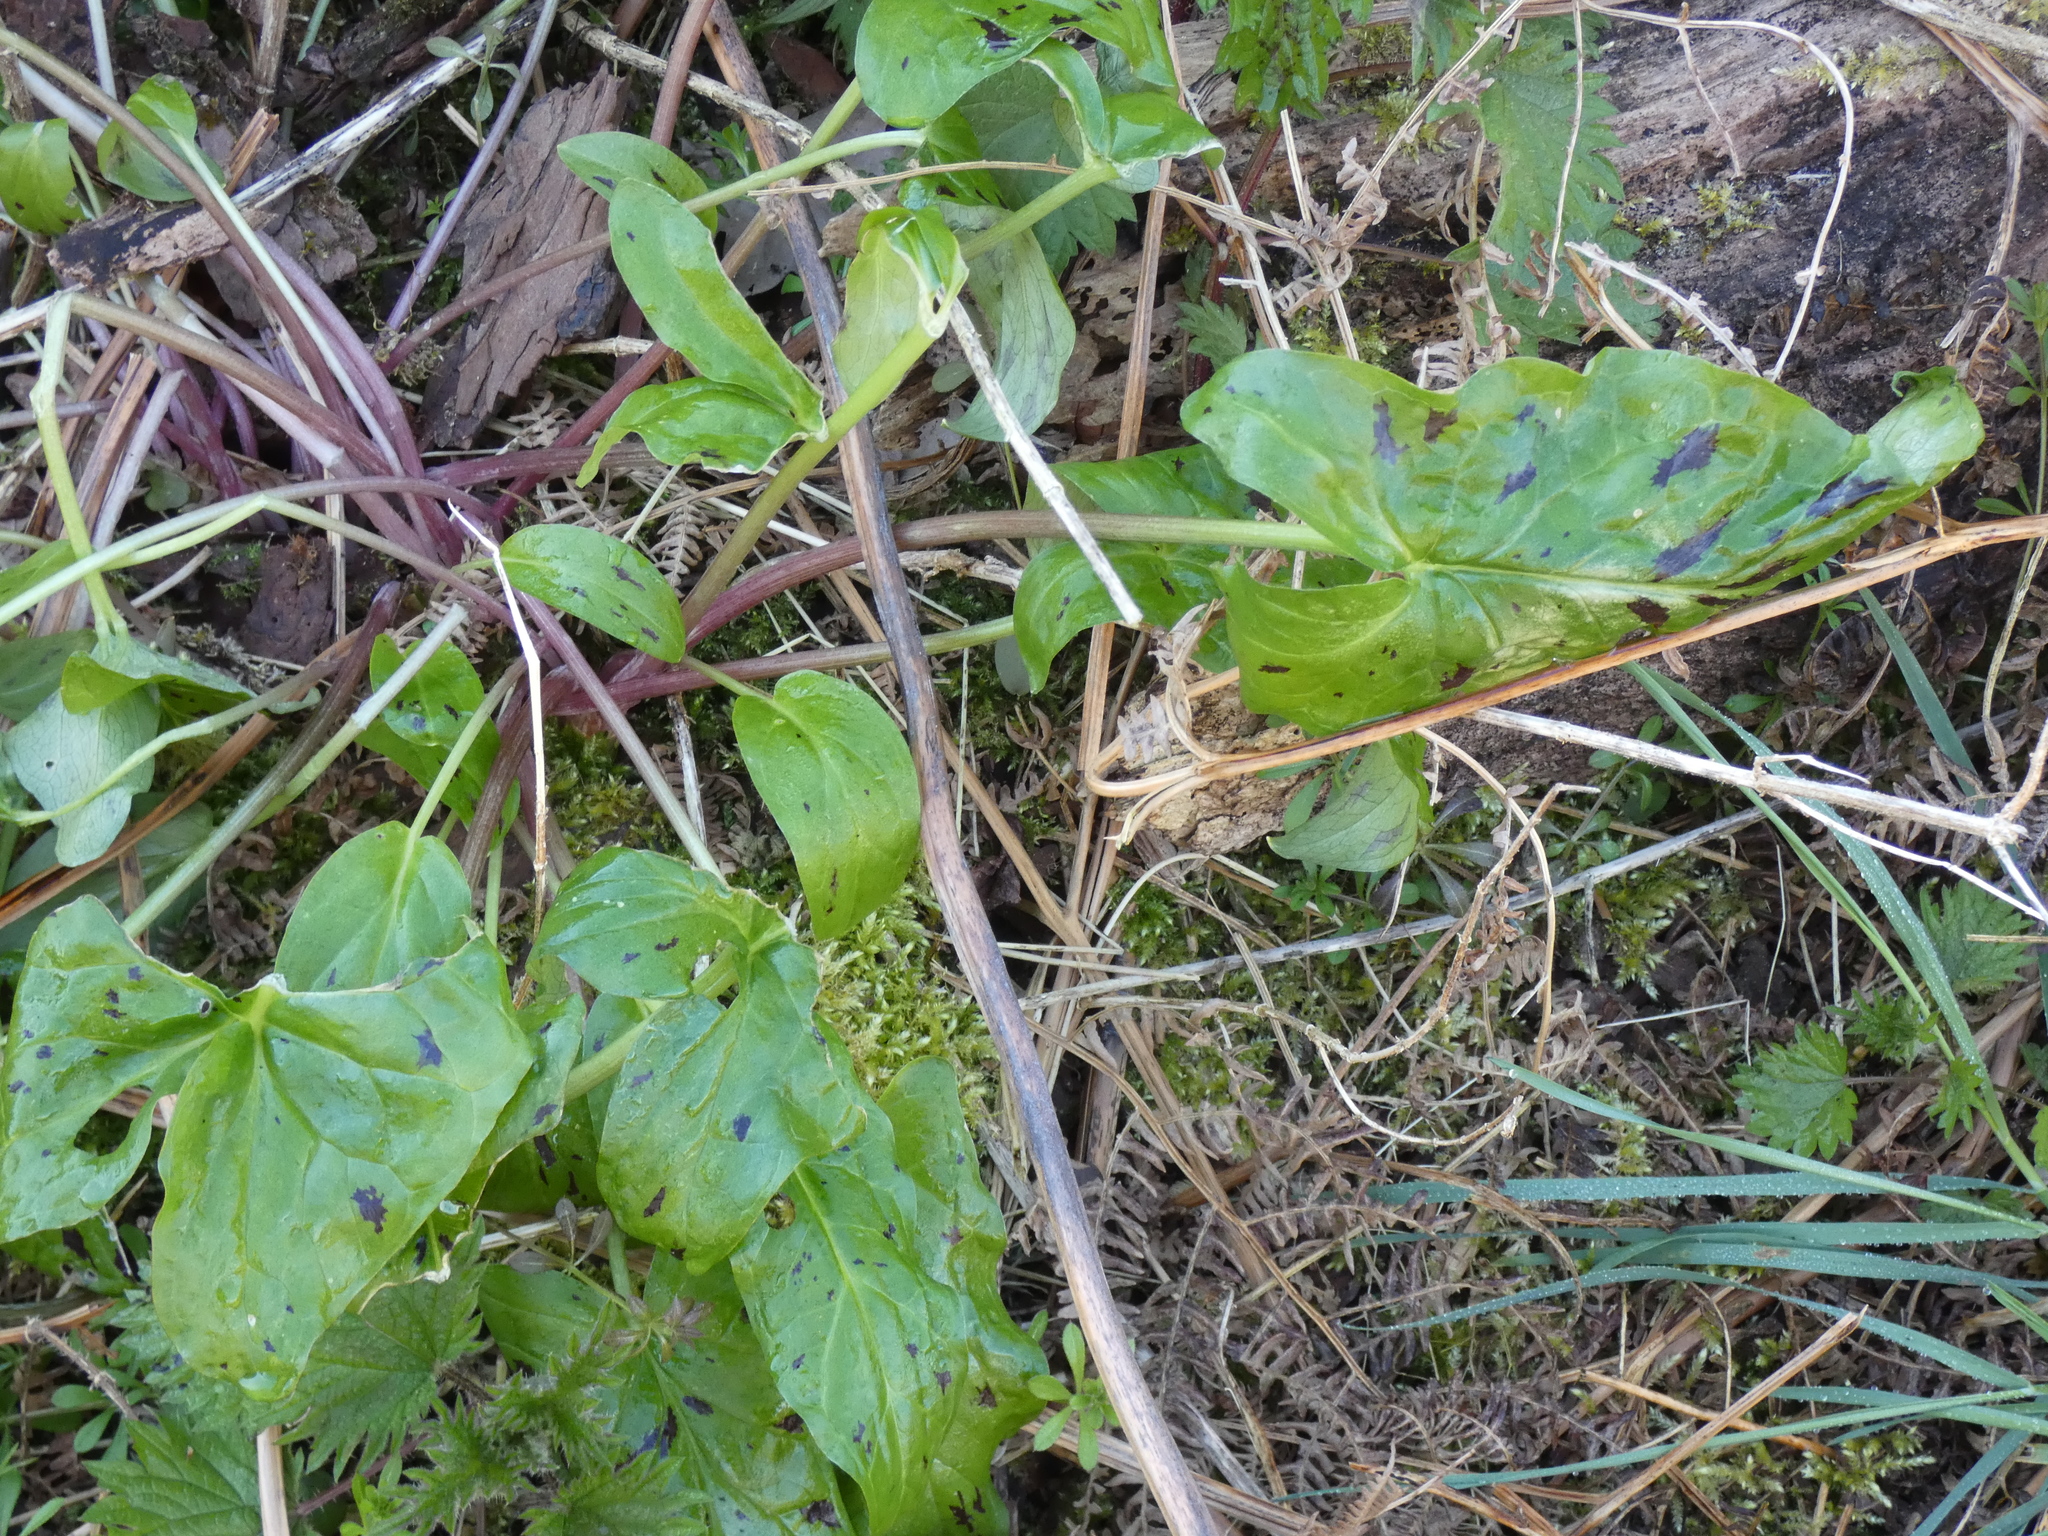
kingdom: Plantae
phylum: Tracheophyta
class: Liliopsida
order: Alismatales
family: Araceae
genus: Arum
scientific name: Arum maculatum
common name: Lords-and-ladies
